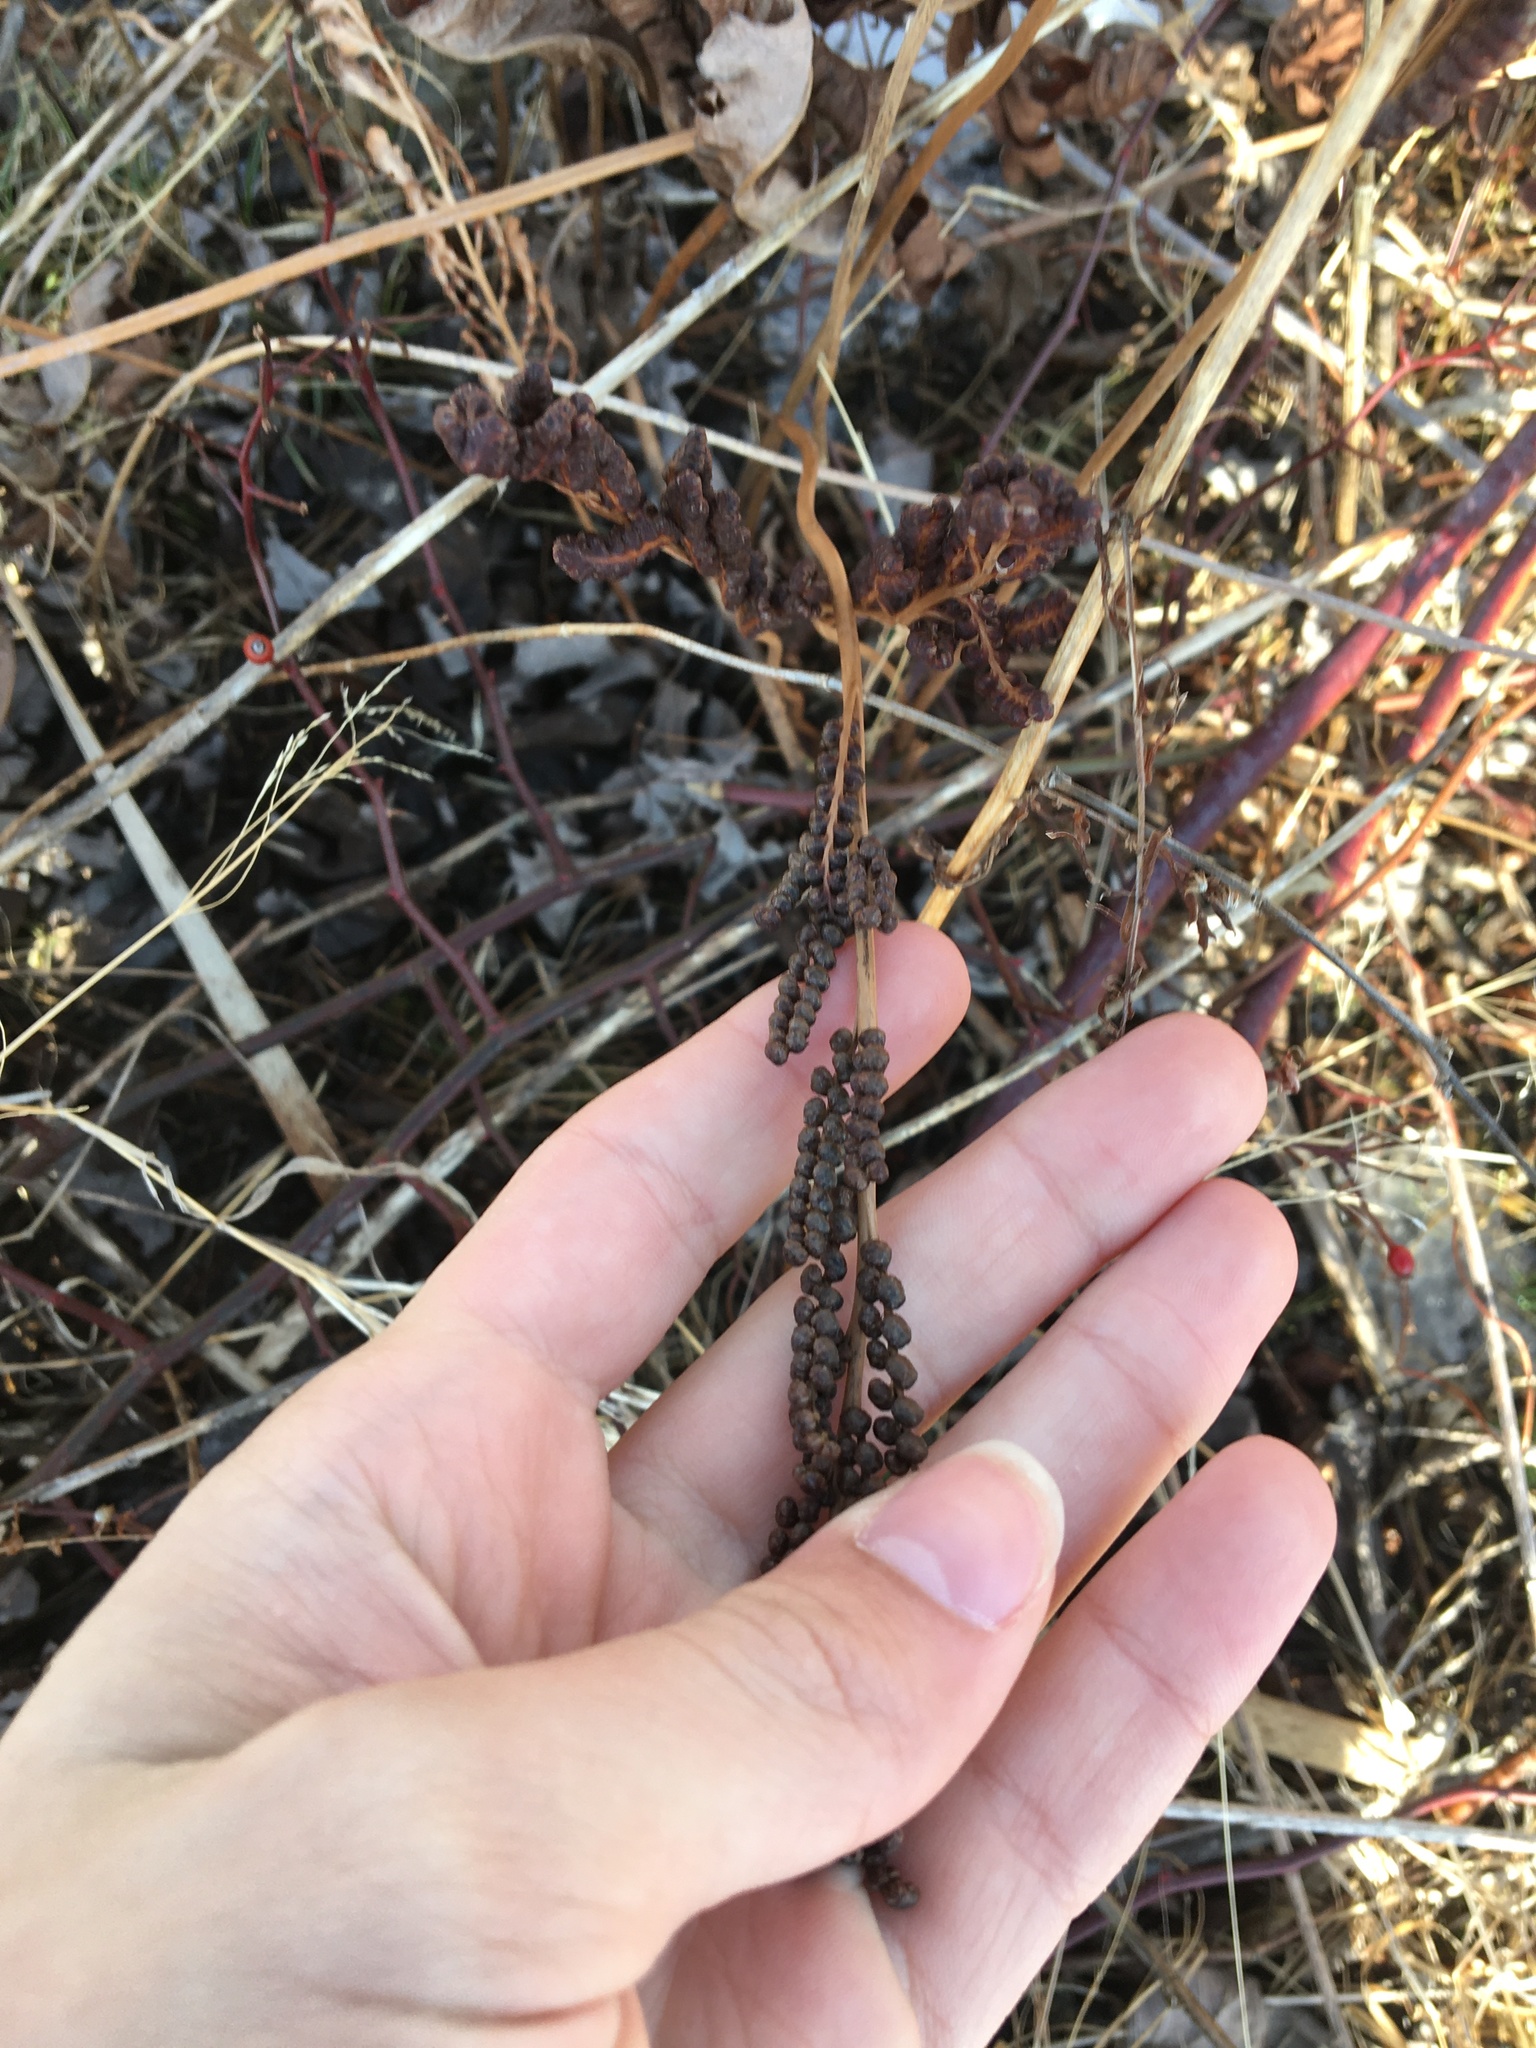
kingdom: Plantae
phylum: Tracheophyta
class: Polypodiopsida
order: Polypodiales
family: Onocleaceae
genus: Onoclea
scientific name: Onoclea sensibilis
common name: Sensitive fern
